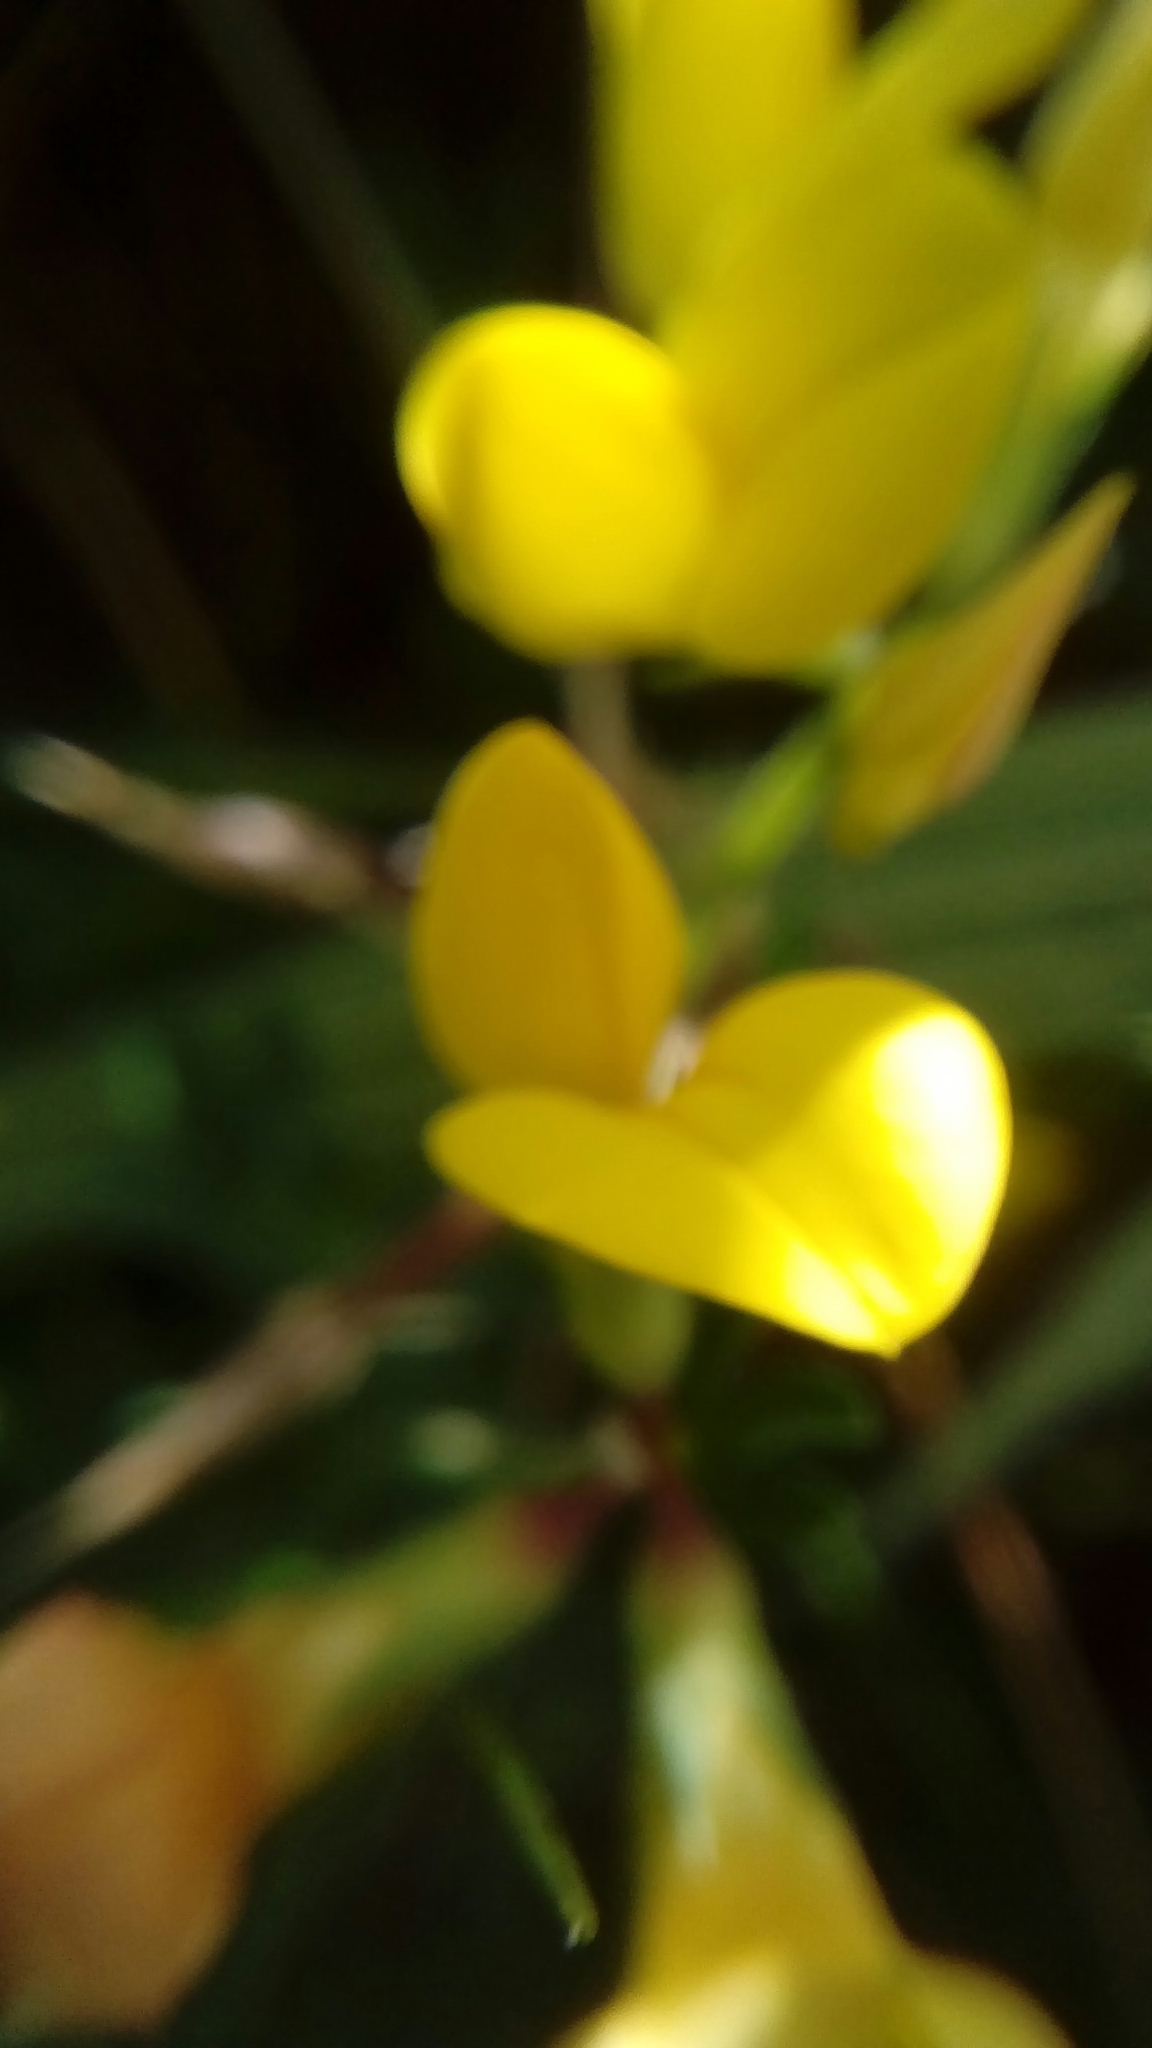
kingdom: Plantae
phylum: Tracheophyta
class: Magnoliopsida
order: Fabales
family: Fabaceae
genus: Lotus
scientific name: Lotus corniculatus
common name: Common bird's-foot-trefoil
